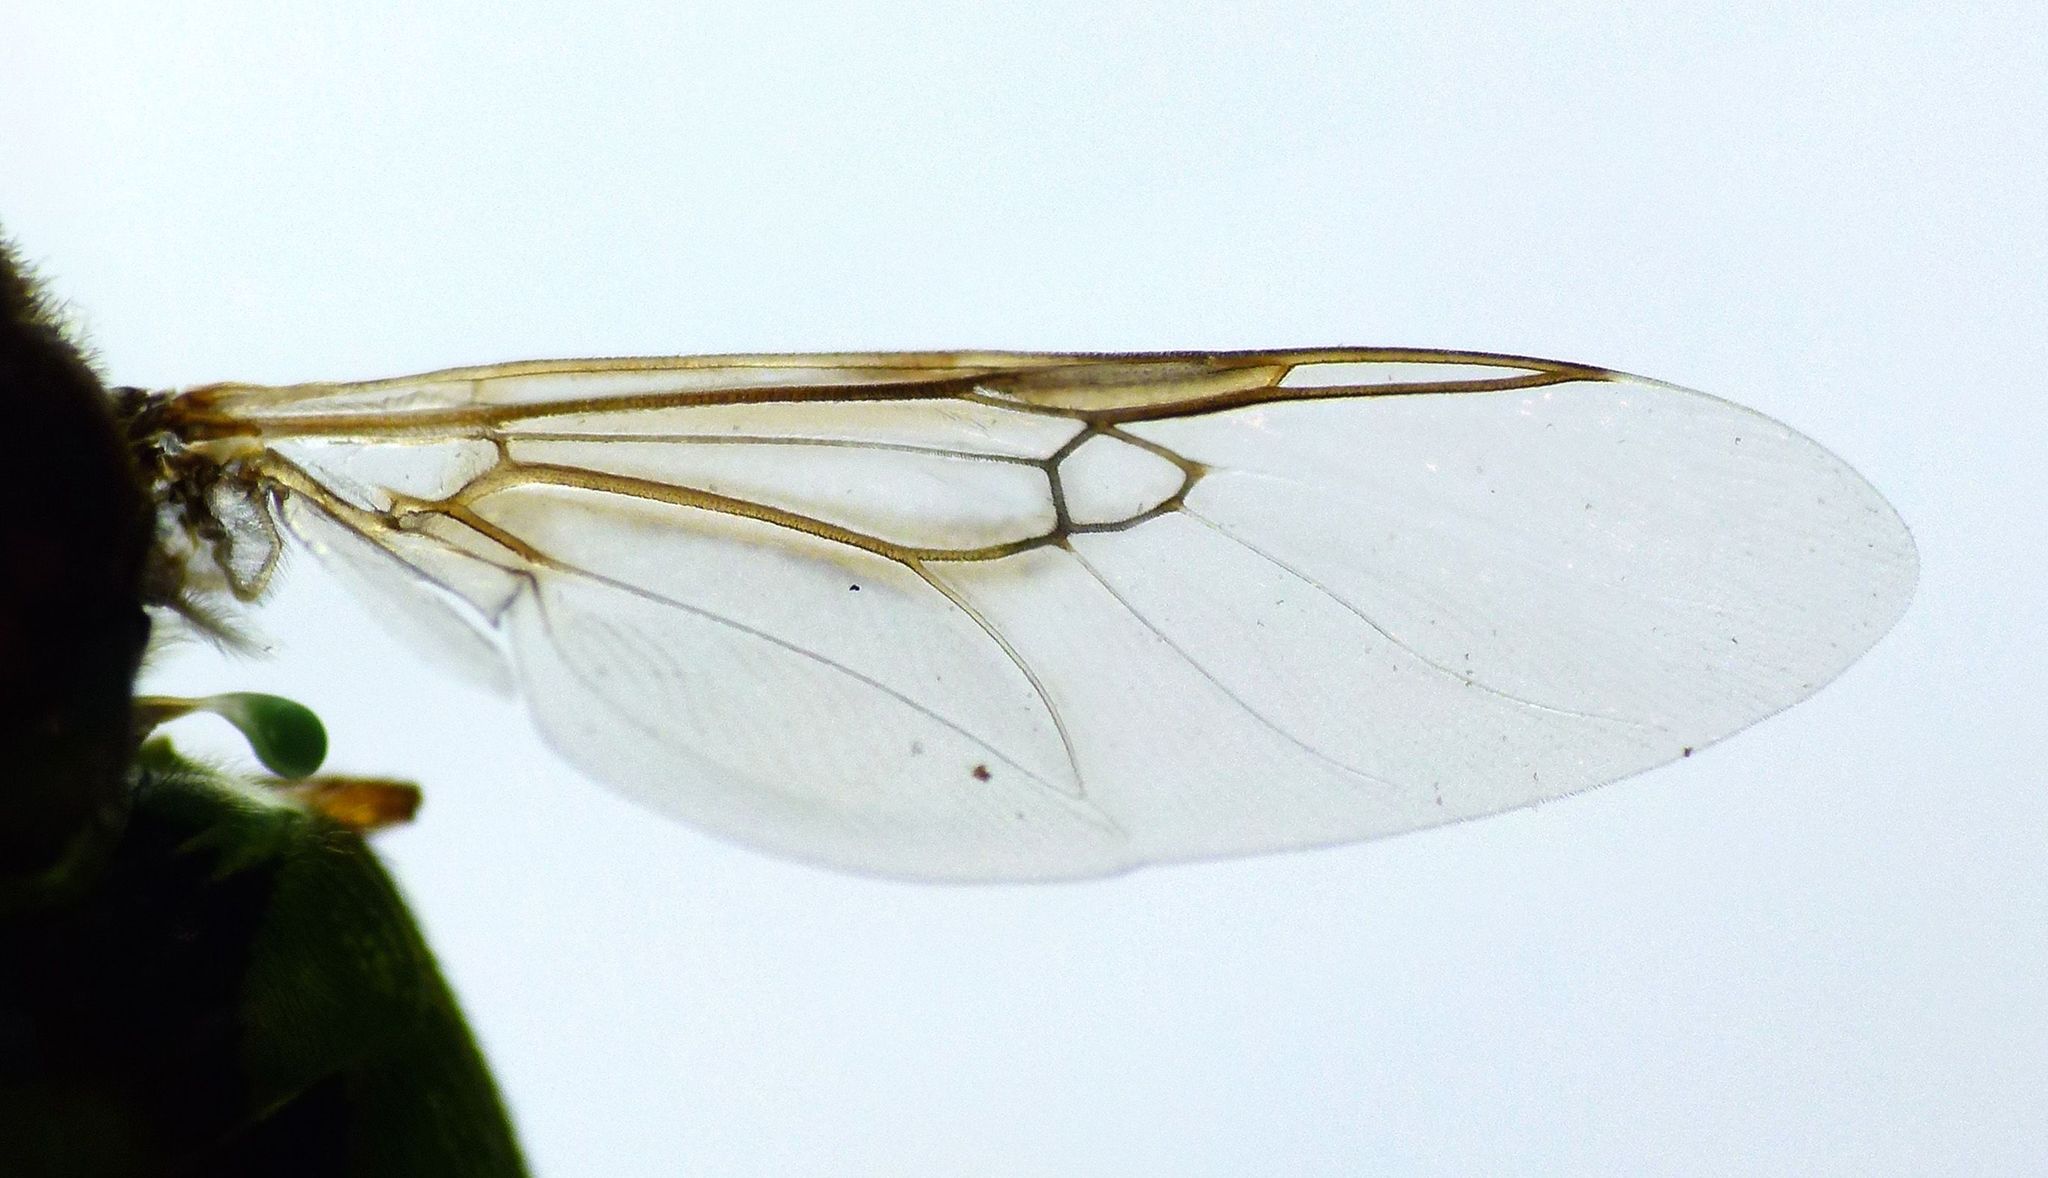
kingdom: Animalia
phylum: Arthropoda
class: Insecta
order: Diptera
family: Stratiomyidae
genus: Odontomyia
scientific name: Odontomyia fulviceps
